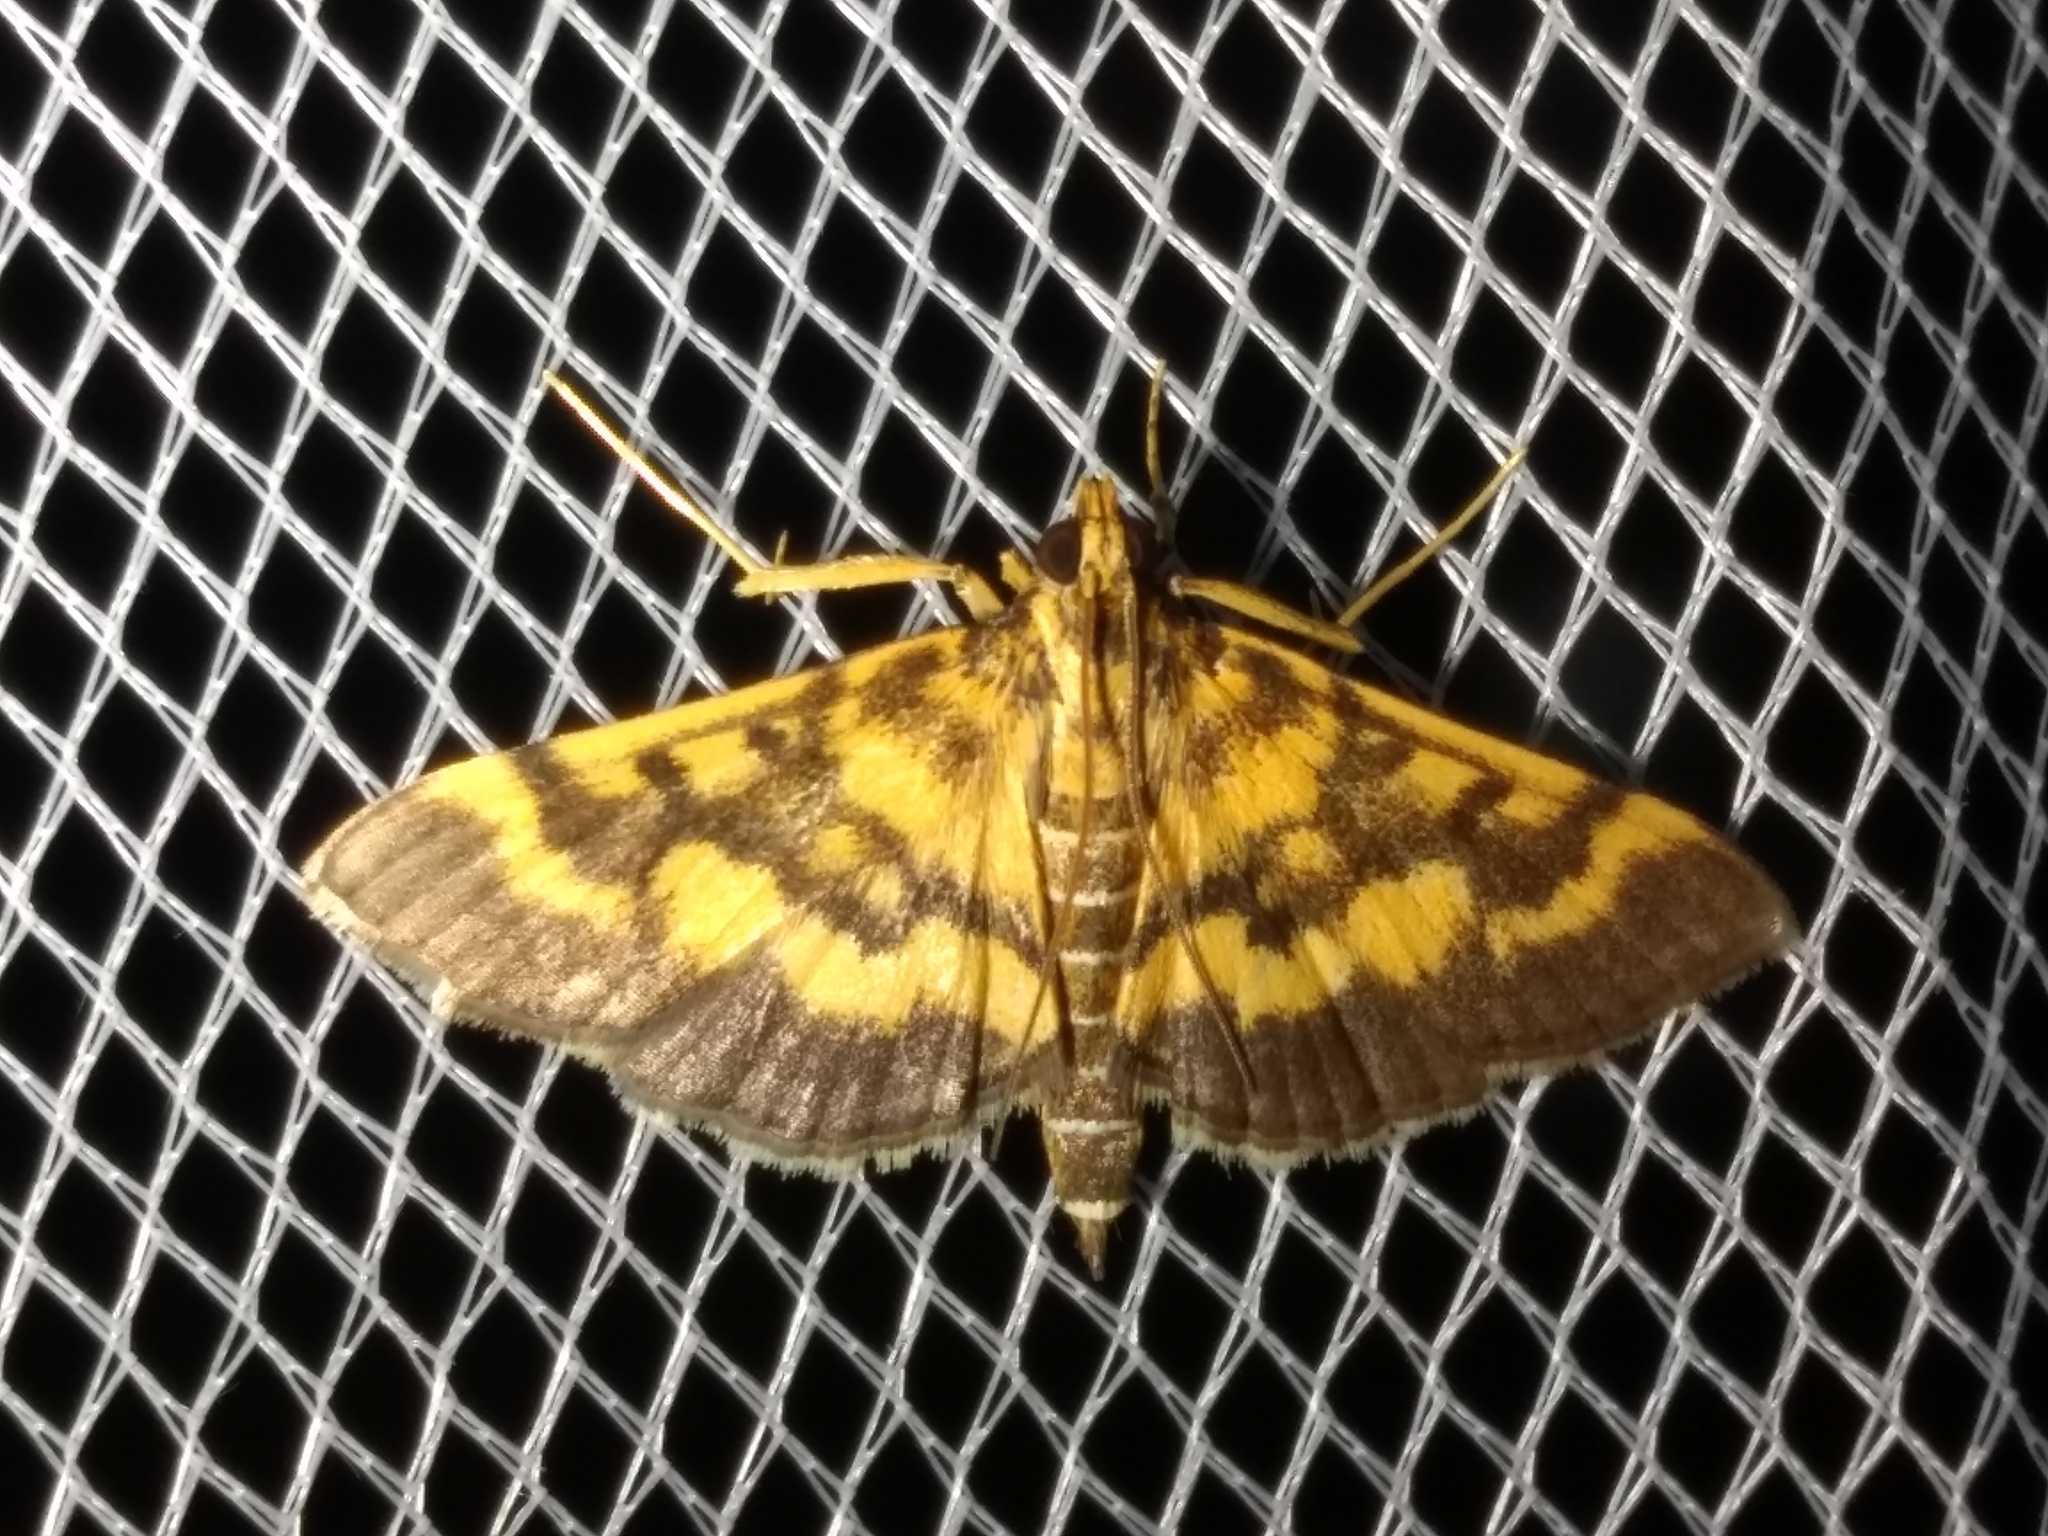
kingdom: Animalia
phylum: Arthropoda
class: Insecta
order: Lepidoptera
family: Crambidae
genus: Omiodes
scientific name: Omiodes diemenalis
